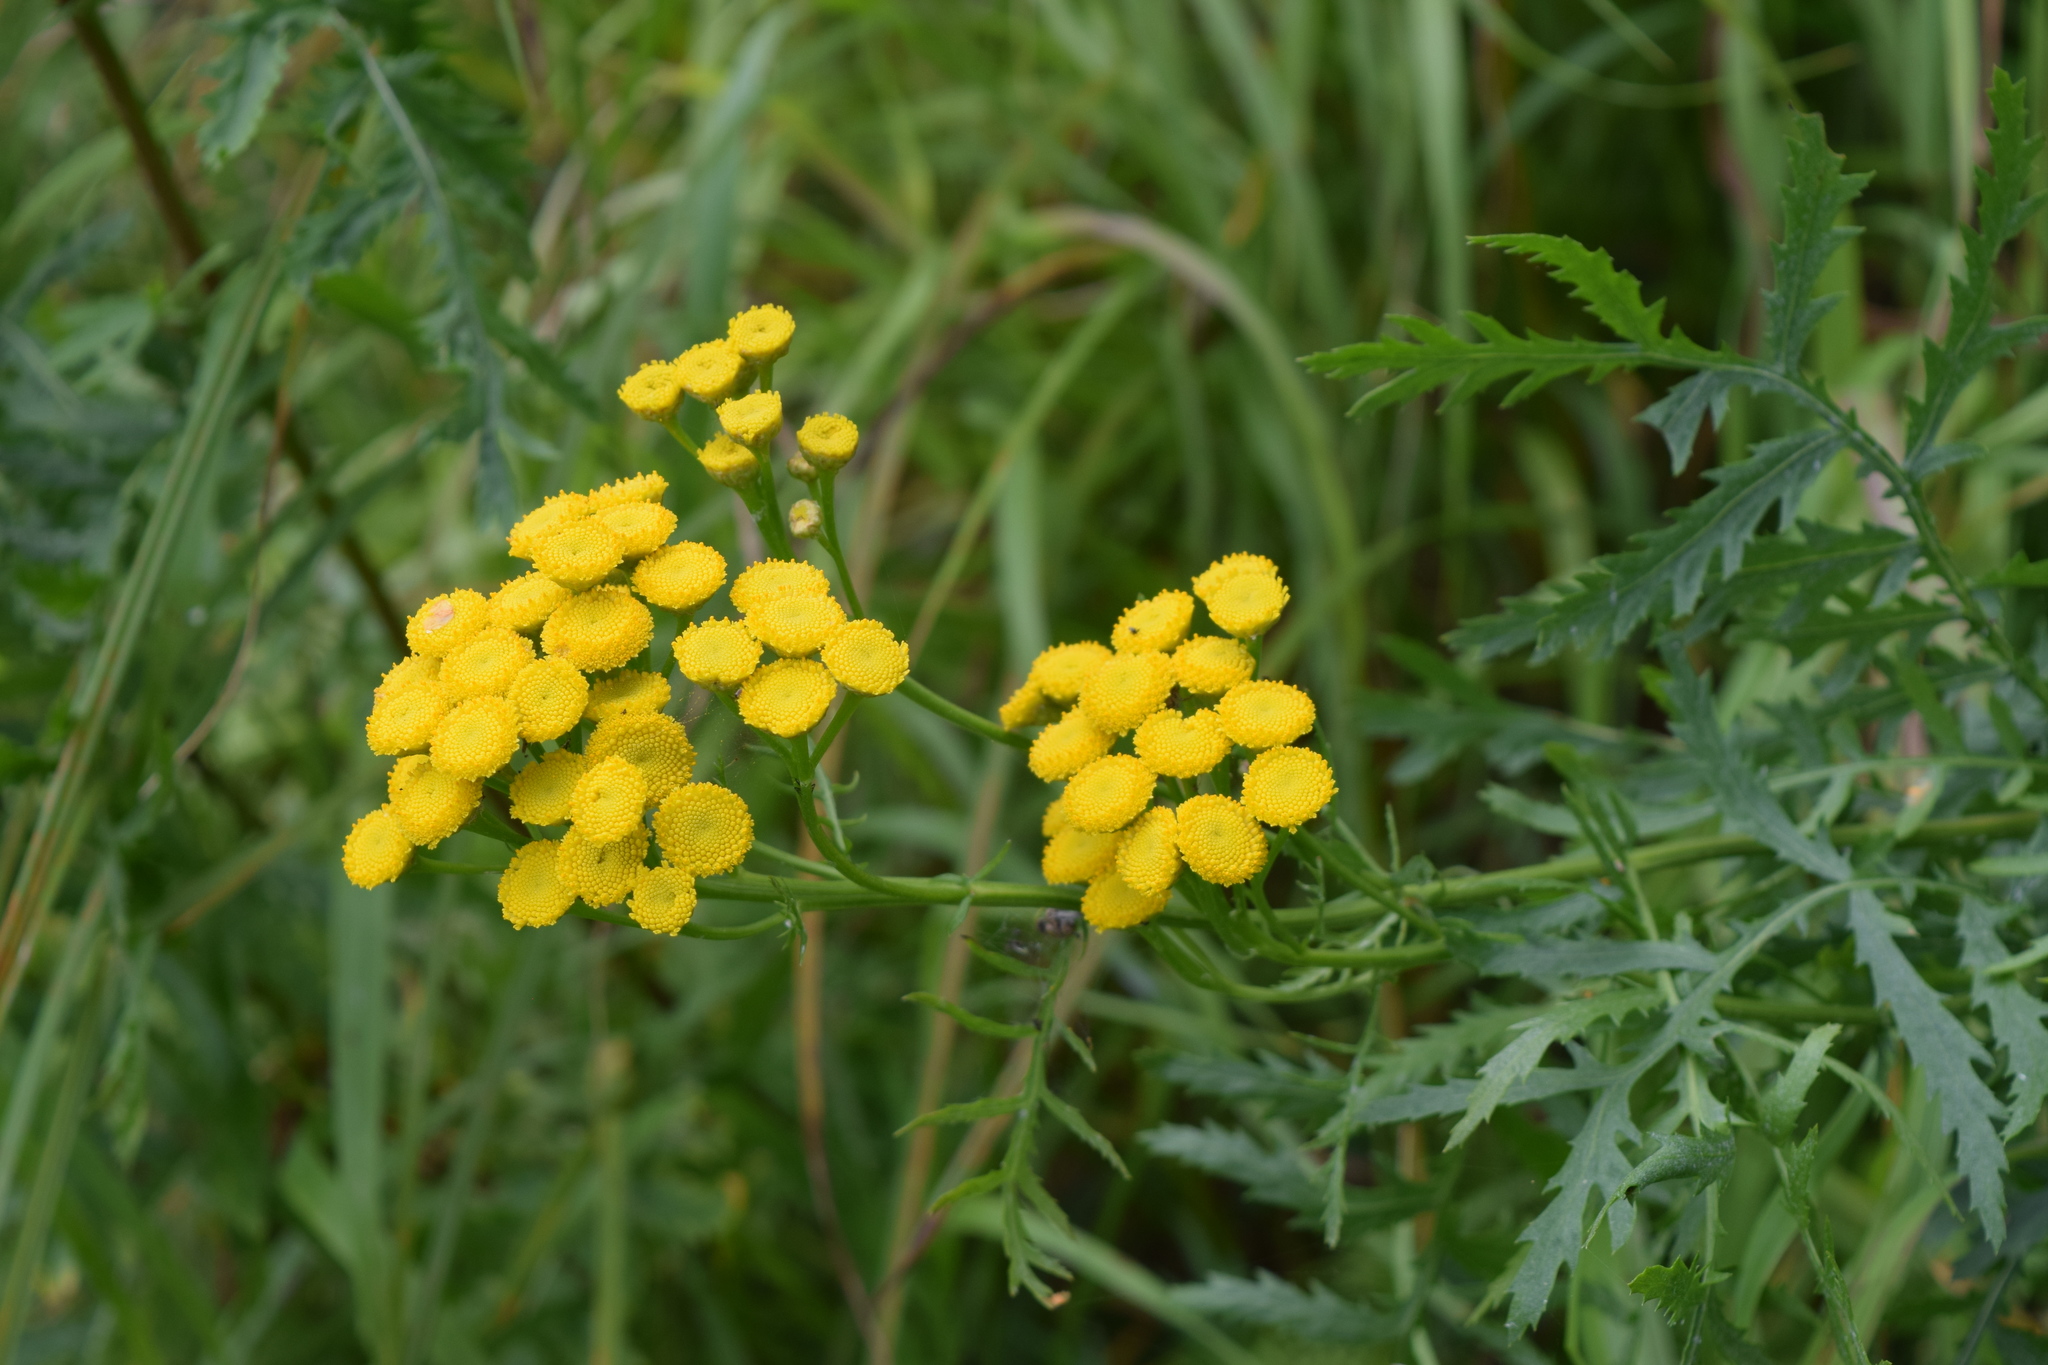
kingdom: Plantae
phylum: Tracheophyta
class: Magnoliopsida
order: Asterales
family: Asteraceae
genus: Tanacetum
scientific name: Tanacetum vulgare
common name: Common tansy
